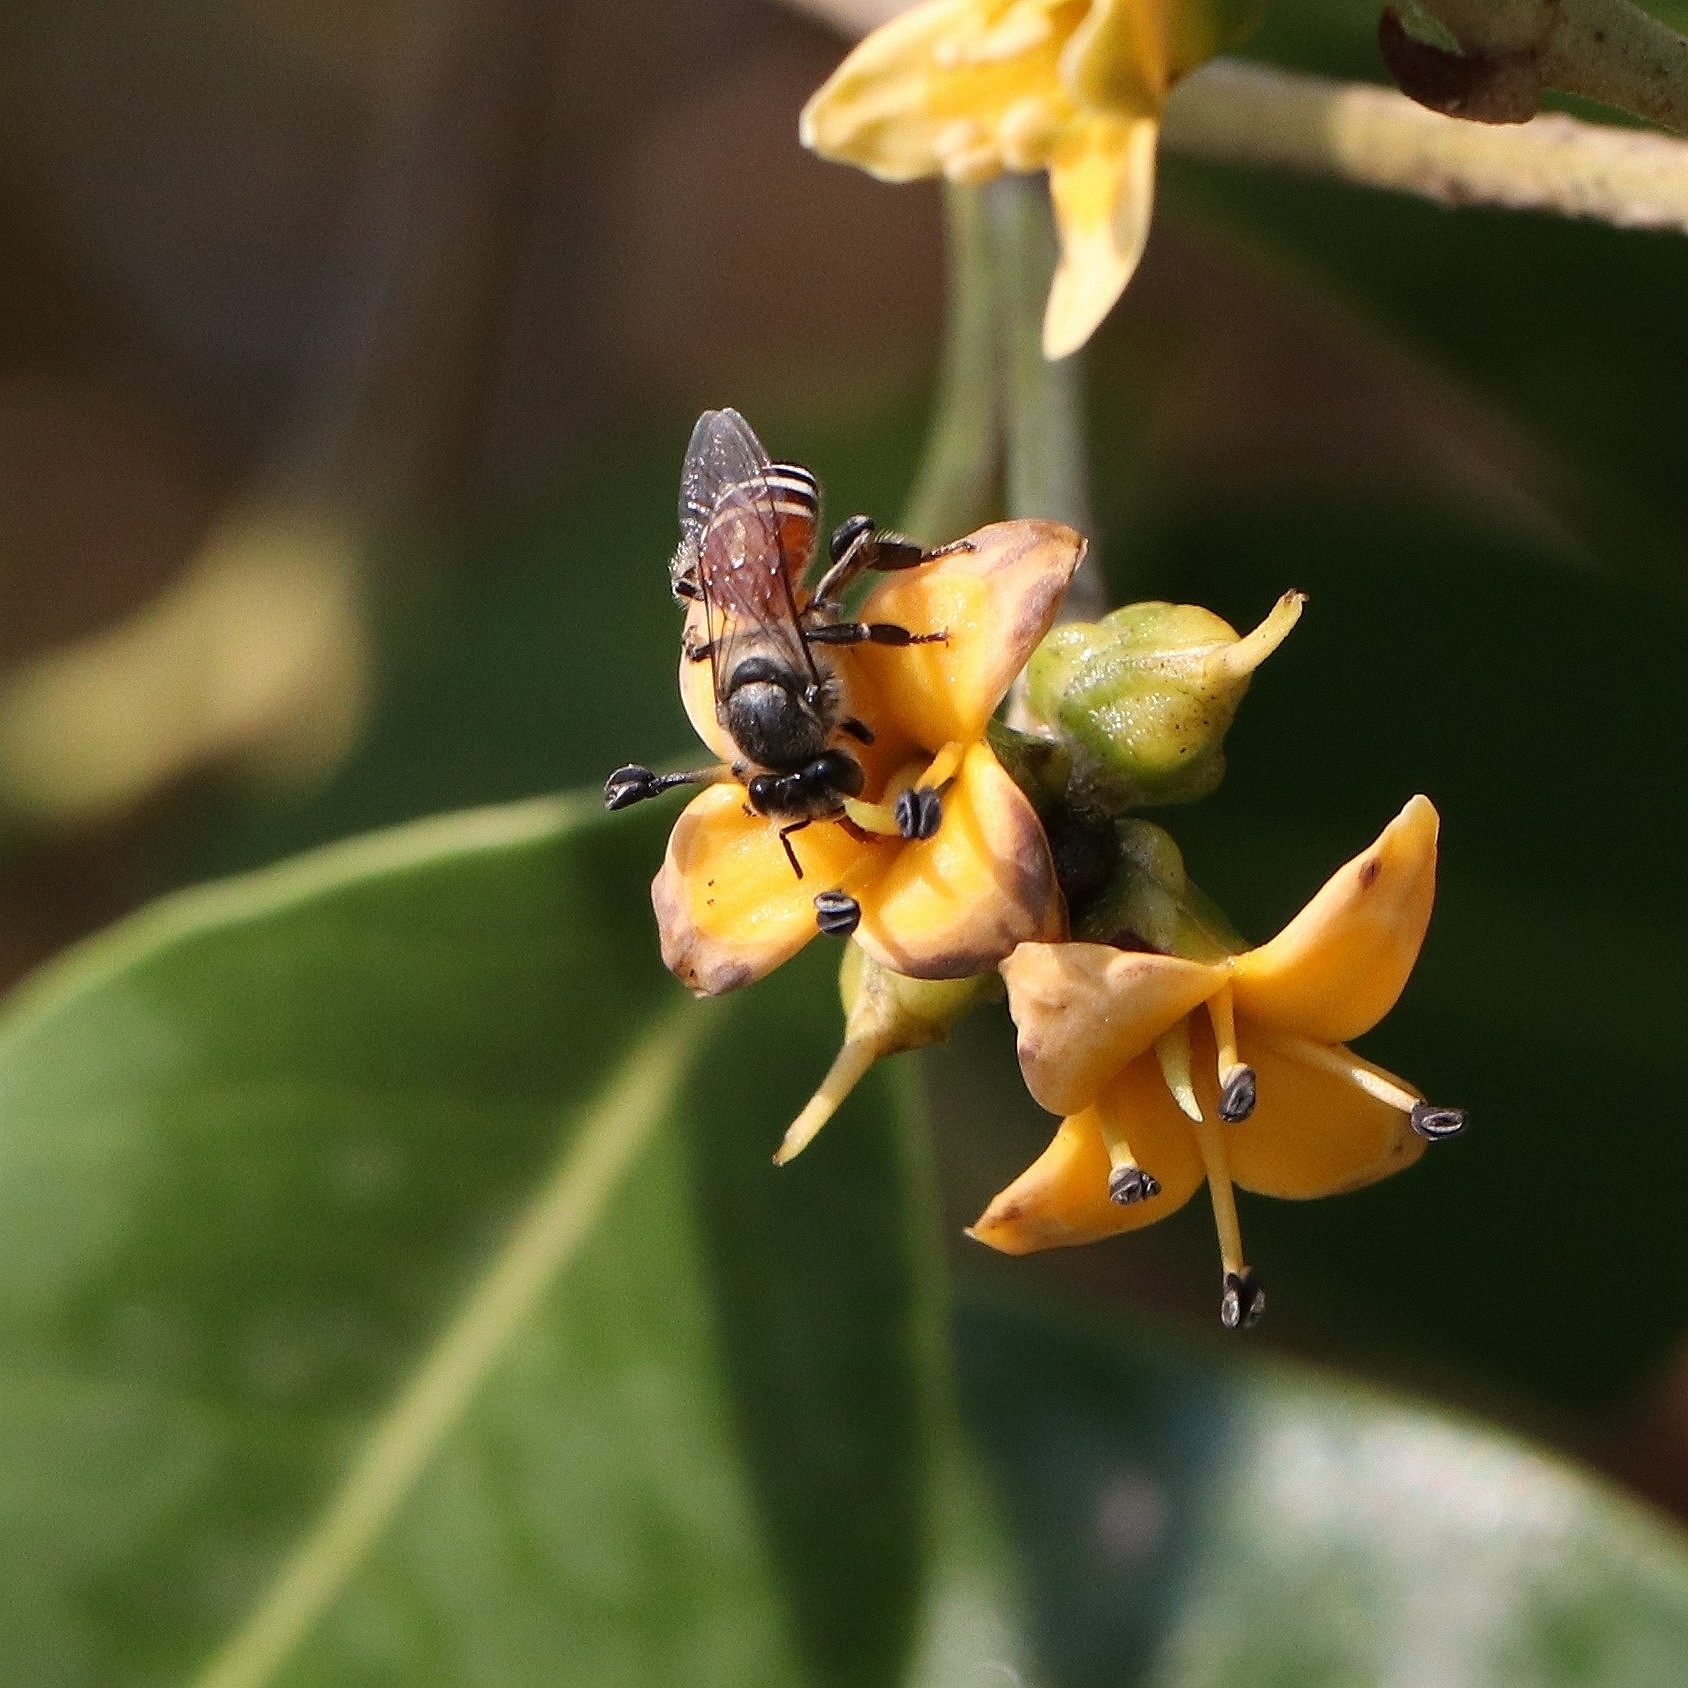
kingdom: Animalia
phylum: Arthropoda
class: Insecta
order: Hymenoptera
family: Apidae
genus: Apis
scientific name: Apis florea
